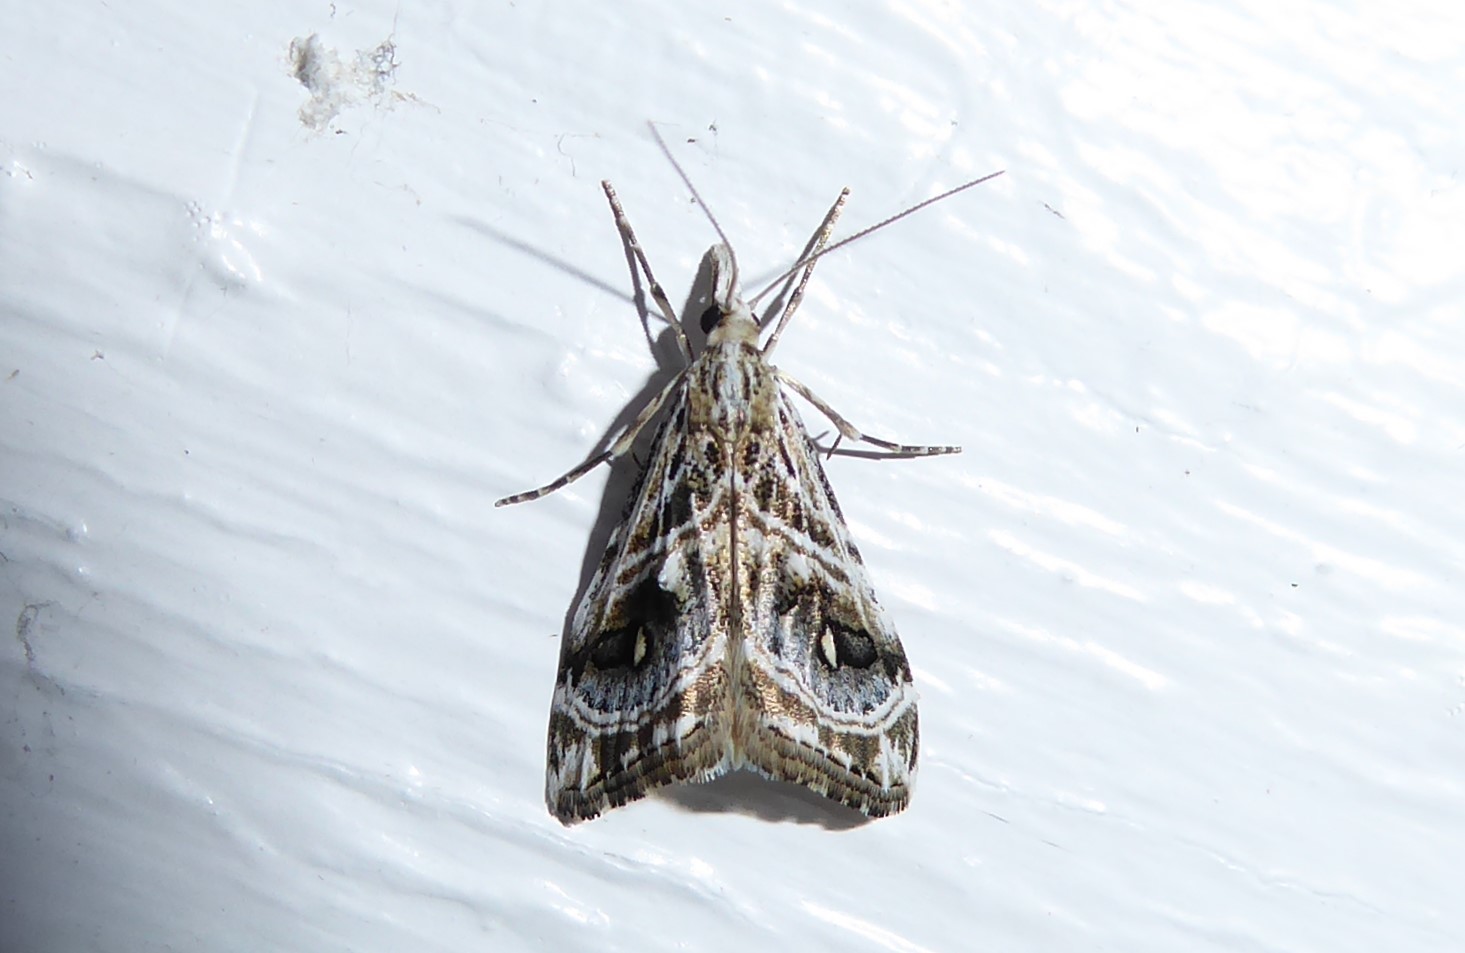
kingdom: Animalia
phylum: Arthropoda
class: Insecta
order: Lepidoptera
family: Crambidae
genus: Gadira
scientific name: Gadira acerella
